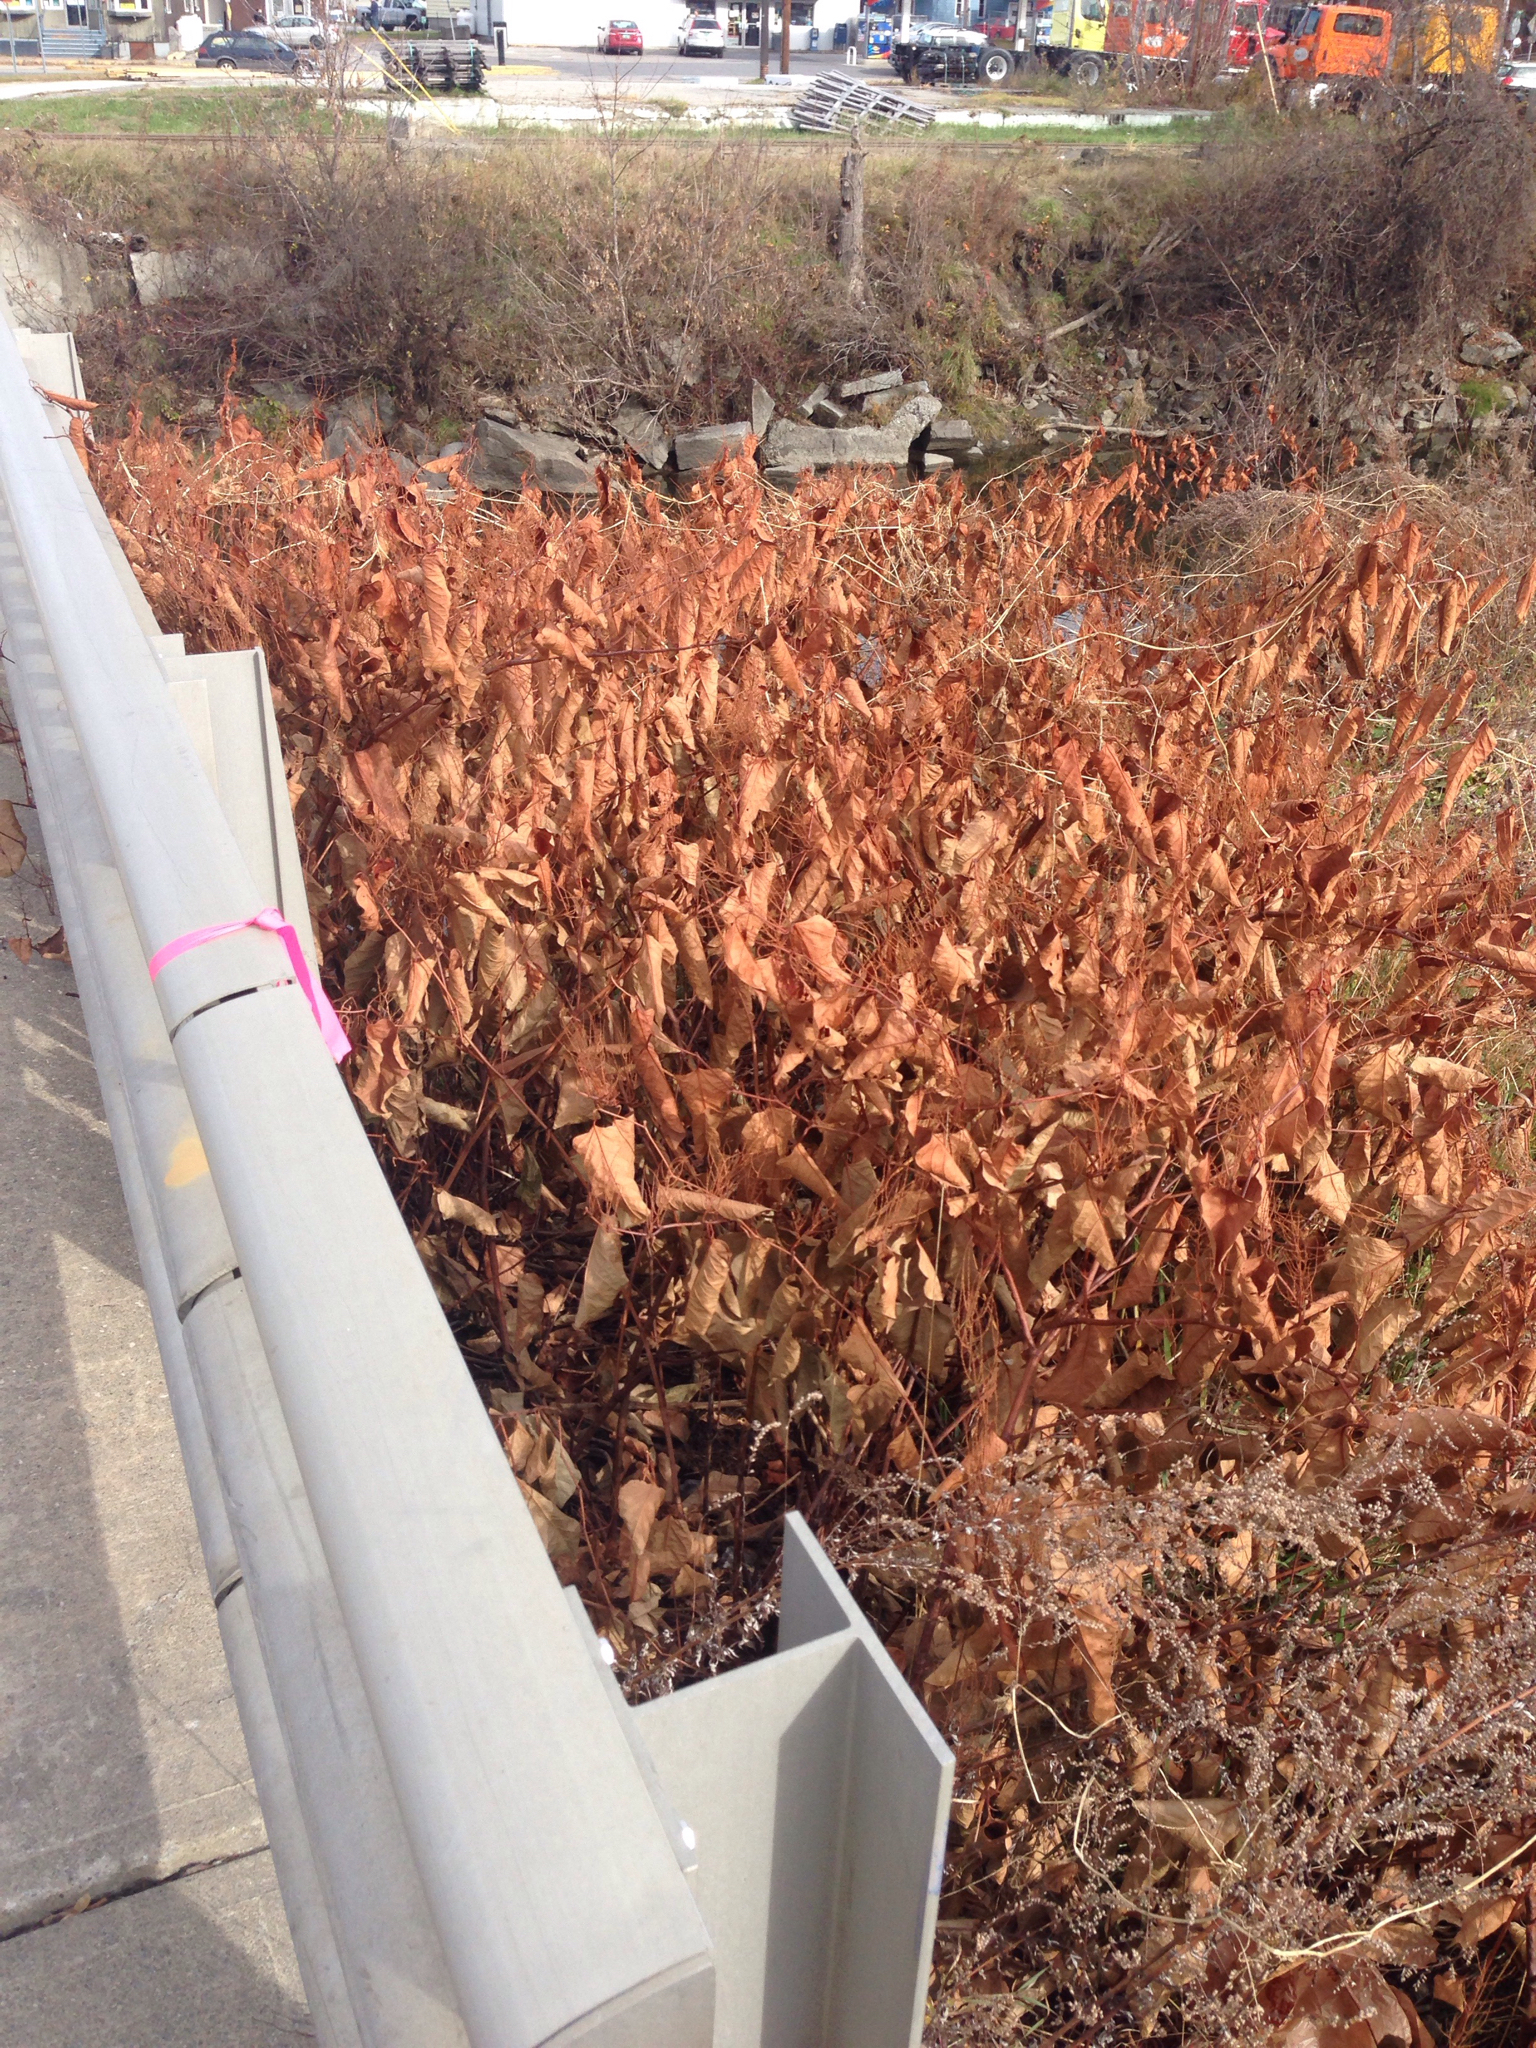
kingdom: Plantae
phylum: Tracheophyta
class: Magnoliopsida
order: Caryophyllales
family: Polygonaceae
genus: Reynoutria
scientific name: Reynoutria japonica
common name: Japanese knotweed
